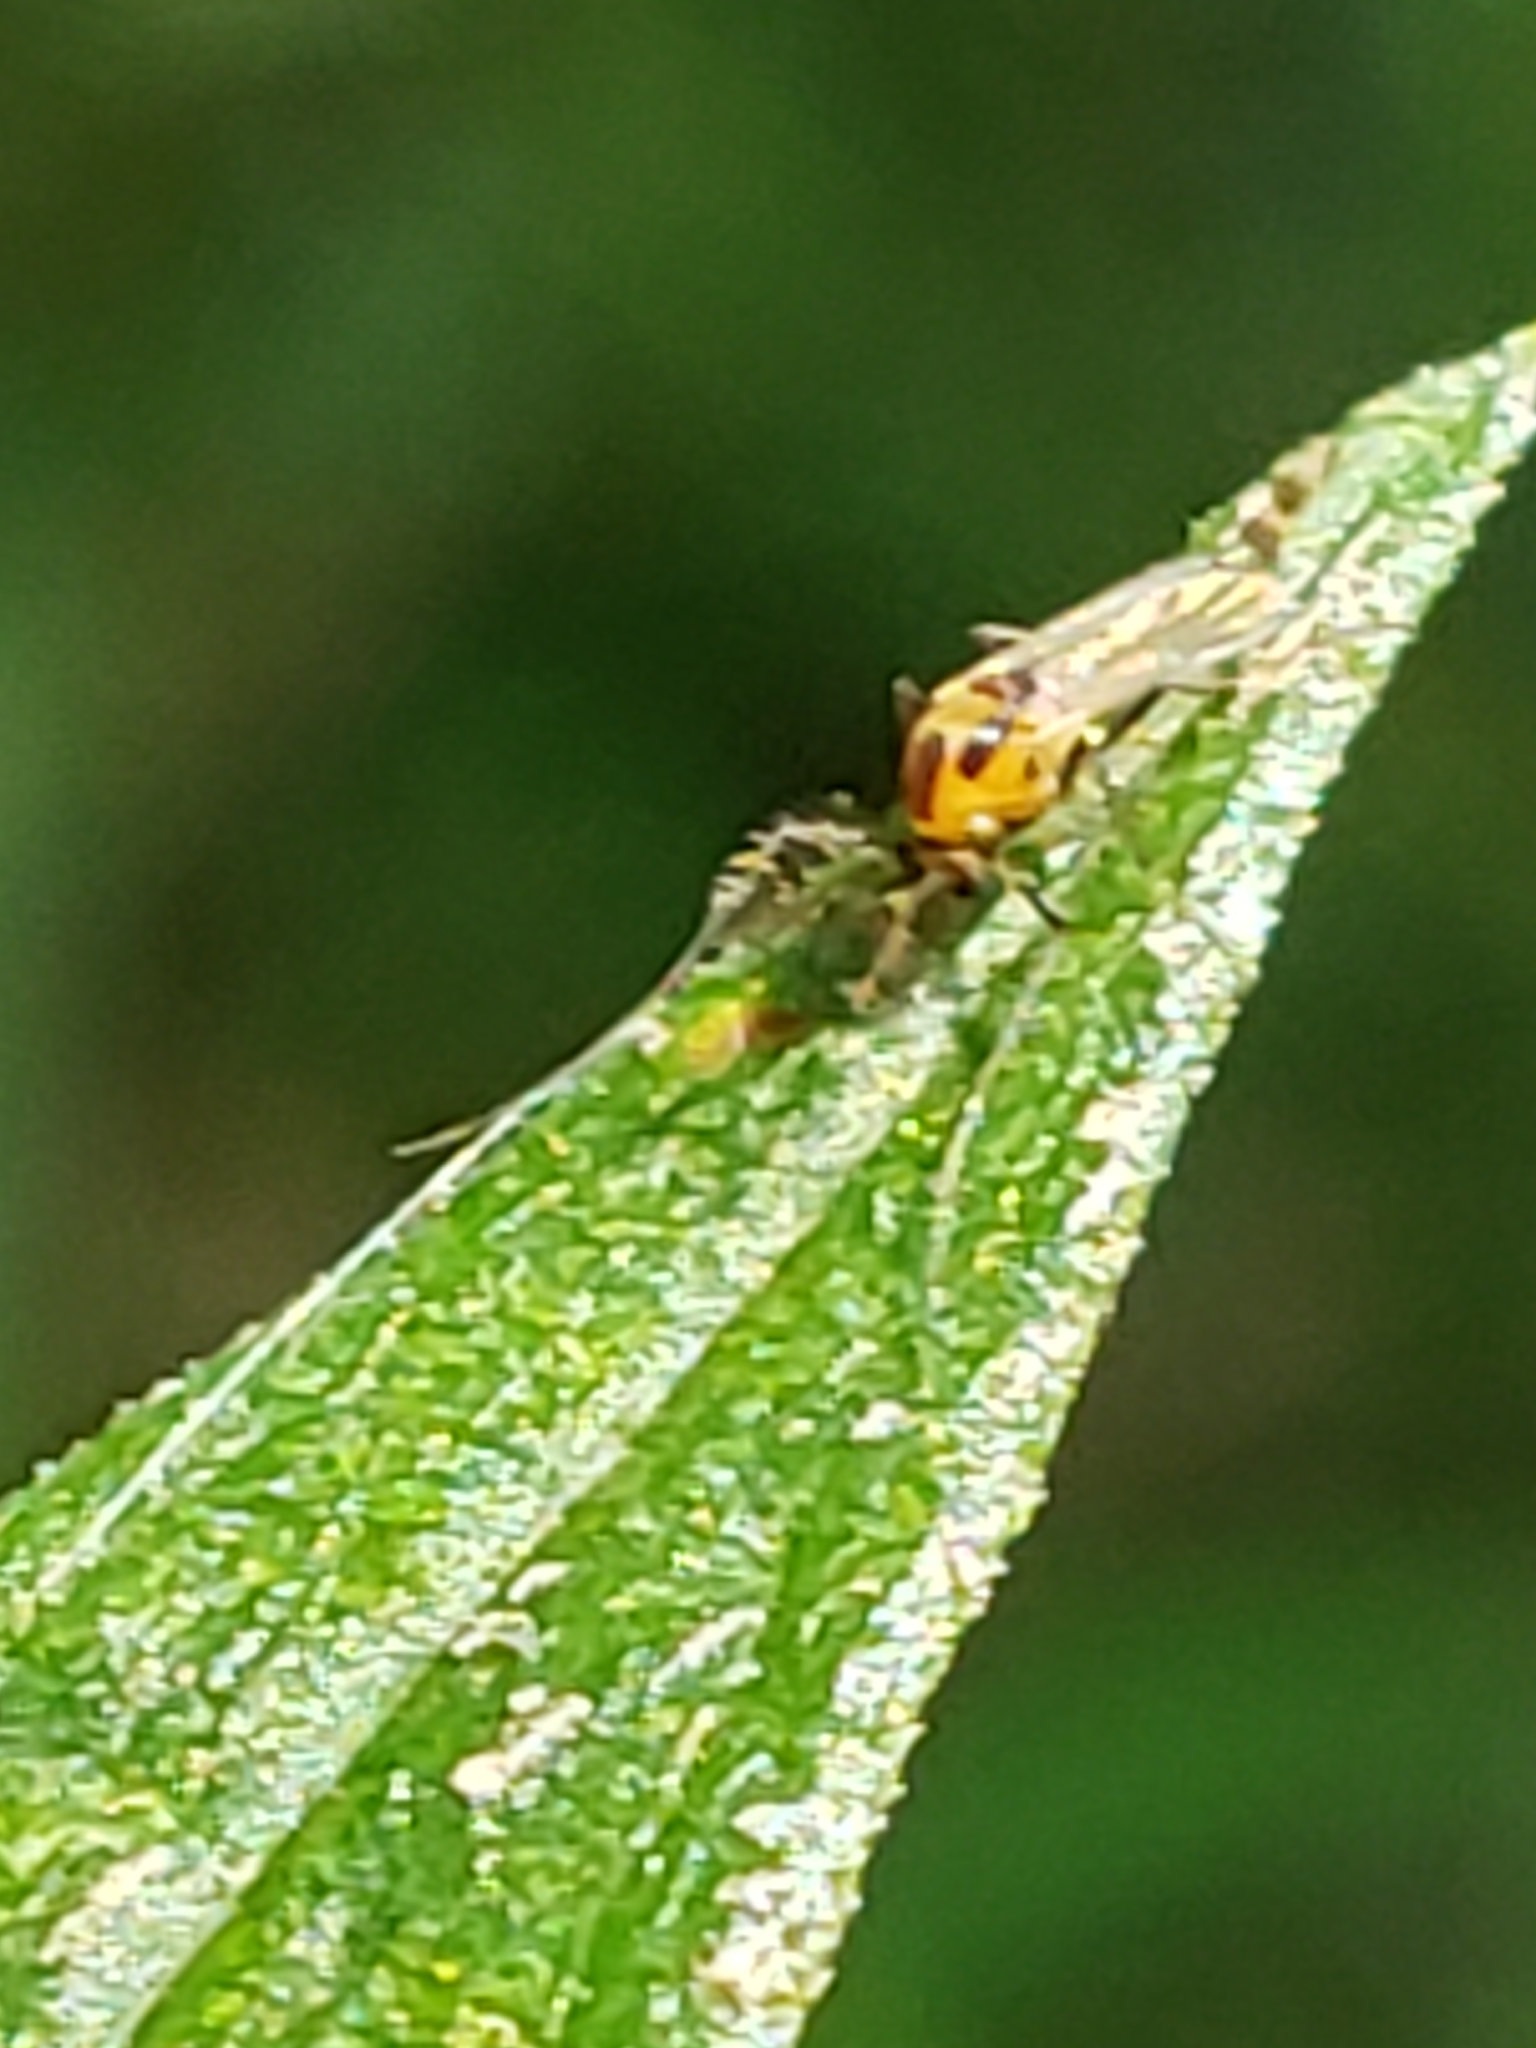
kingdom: Animalia
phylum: Arthropoda
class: Insecta
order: Diptera
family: Chironomidae
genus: Cricotopus
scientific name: Cricotopus
